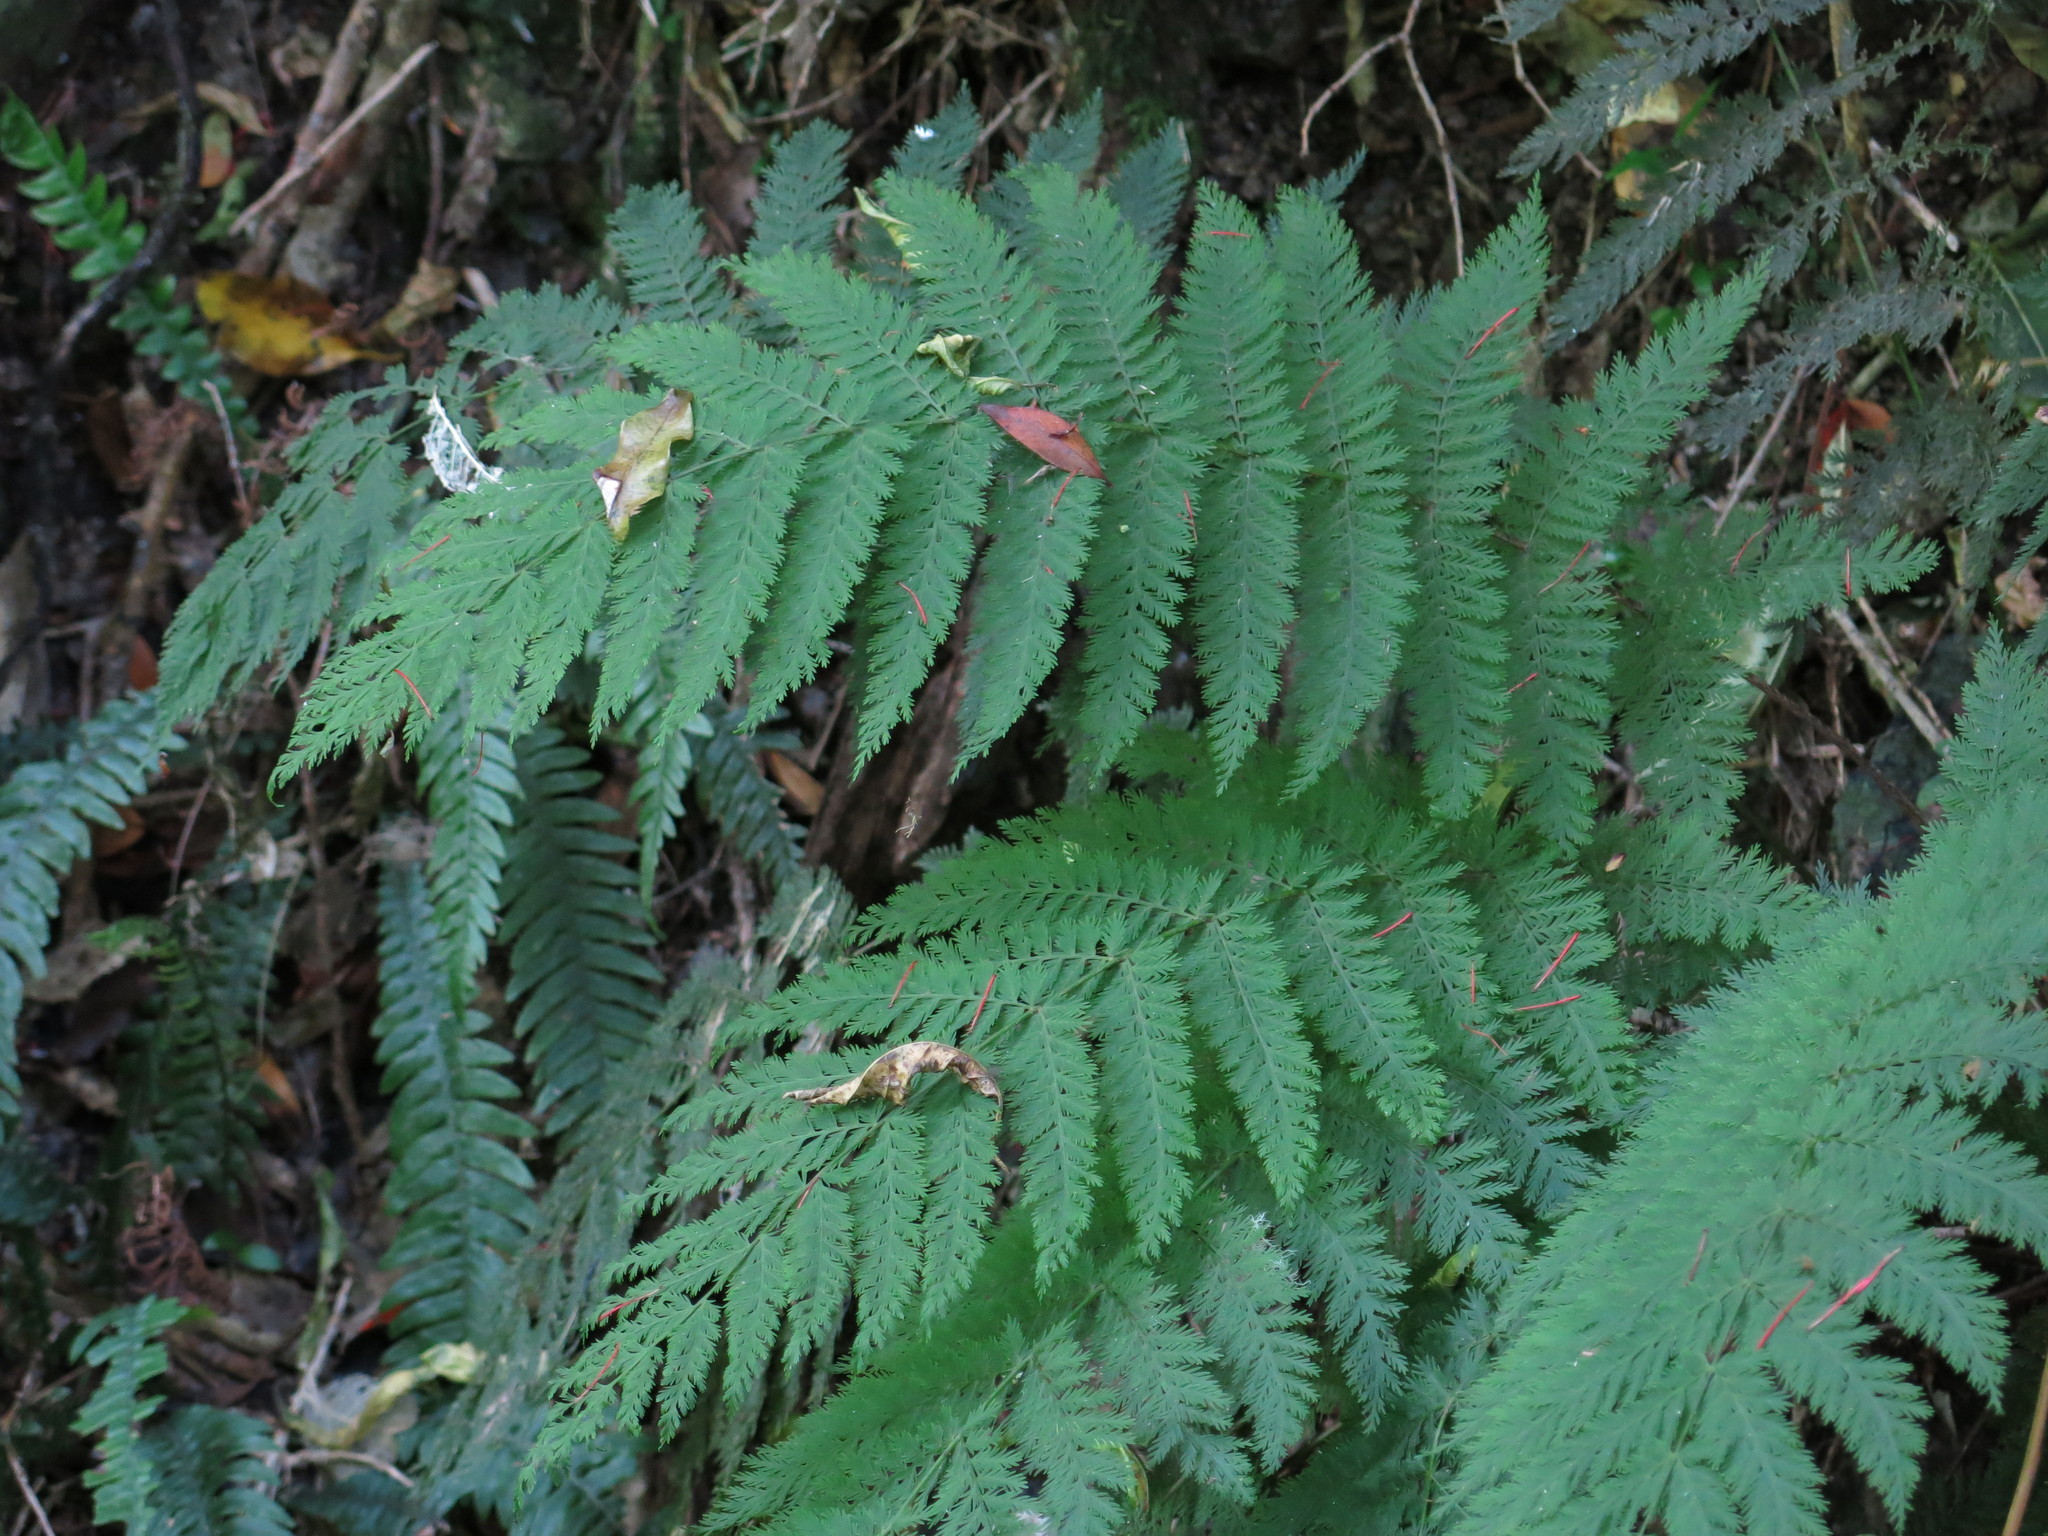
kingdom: Plantae
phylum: Tracheophyta
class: Polypodiopsida
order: Osmundales
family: Osmundaceae
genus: Leptopteris
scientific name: Leptopteris hymenophylloides
